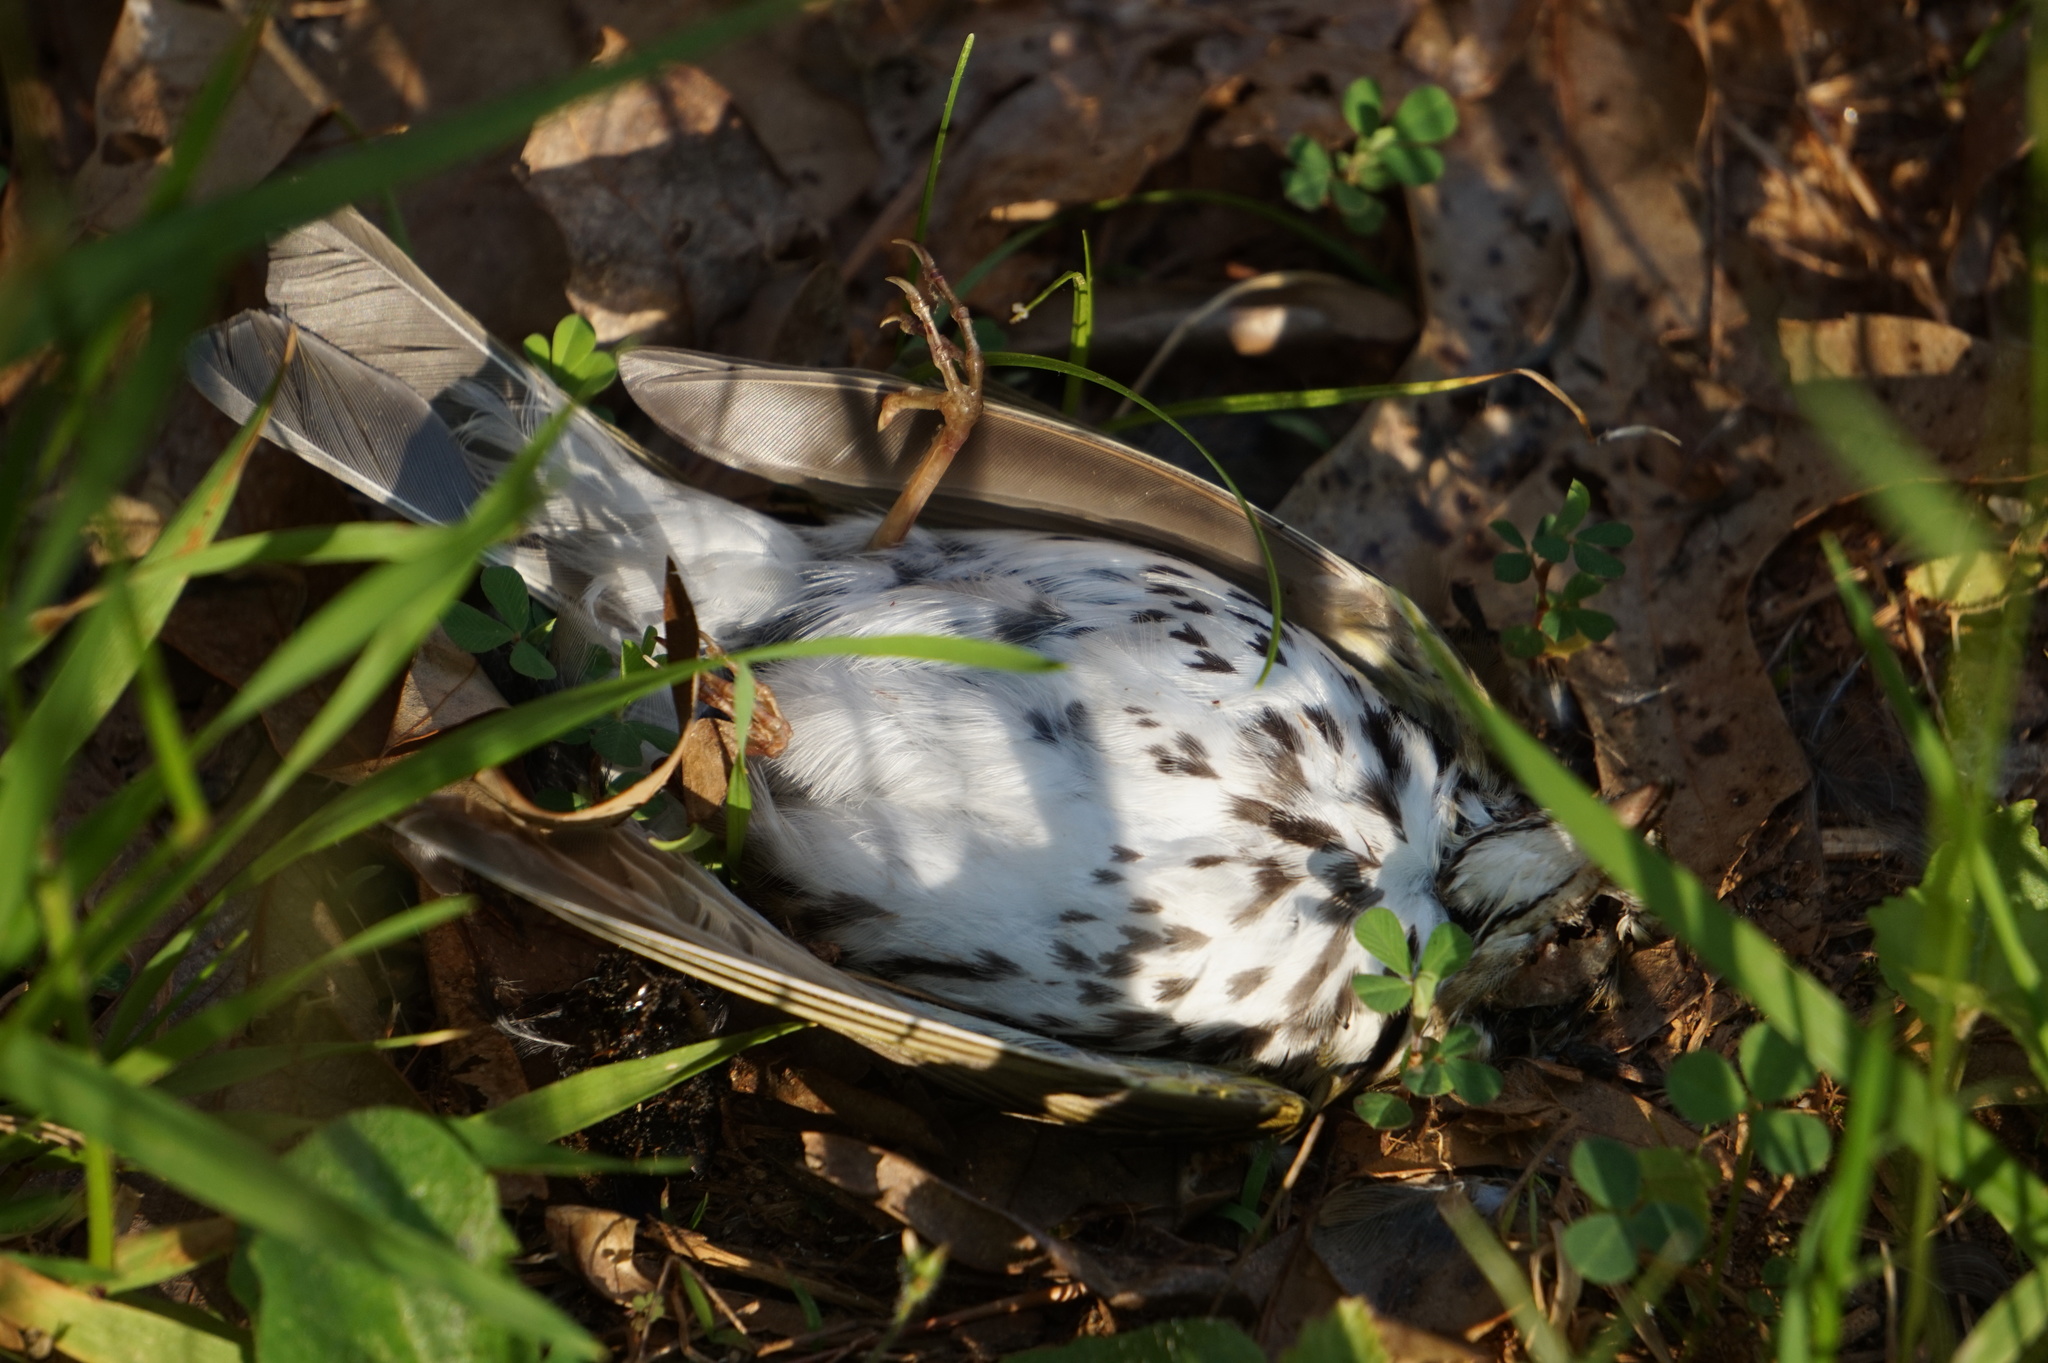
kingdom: Animalia
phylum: Chordata
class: Aves
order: Passeriformes
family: Parulidae
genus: Seiurus
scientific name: Seiurus aurocapilla
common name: Ovenbird
